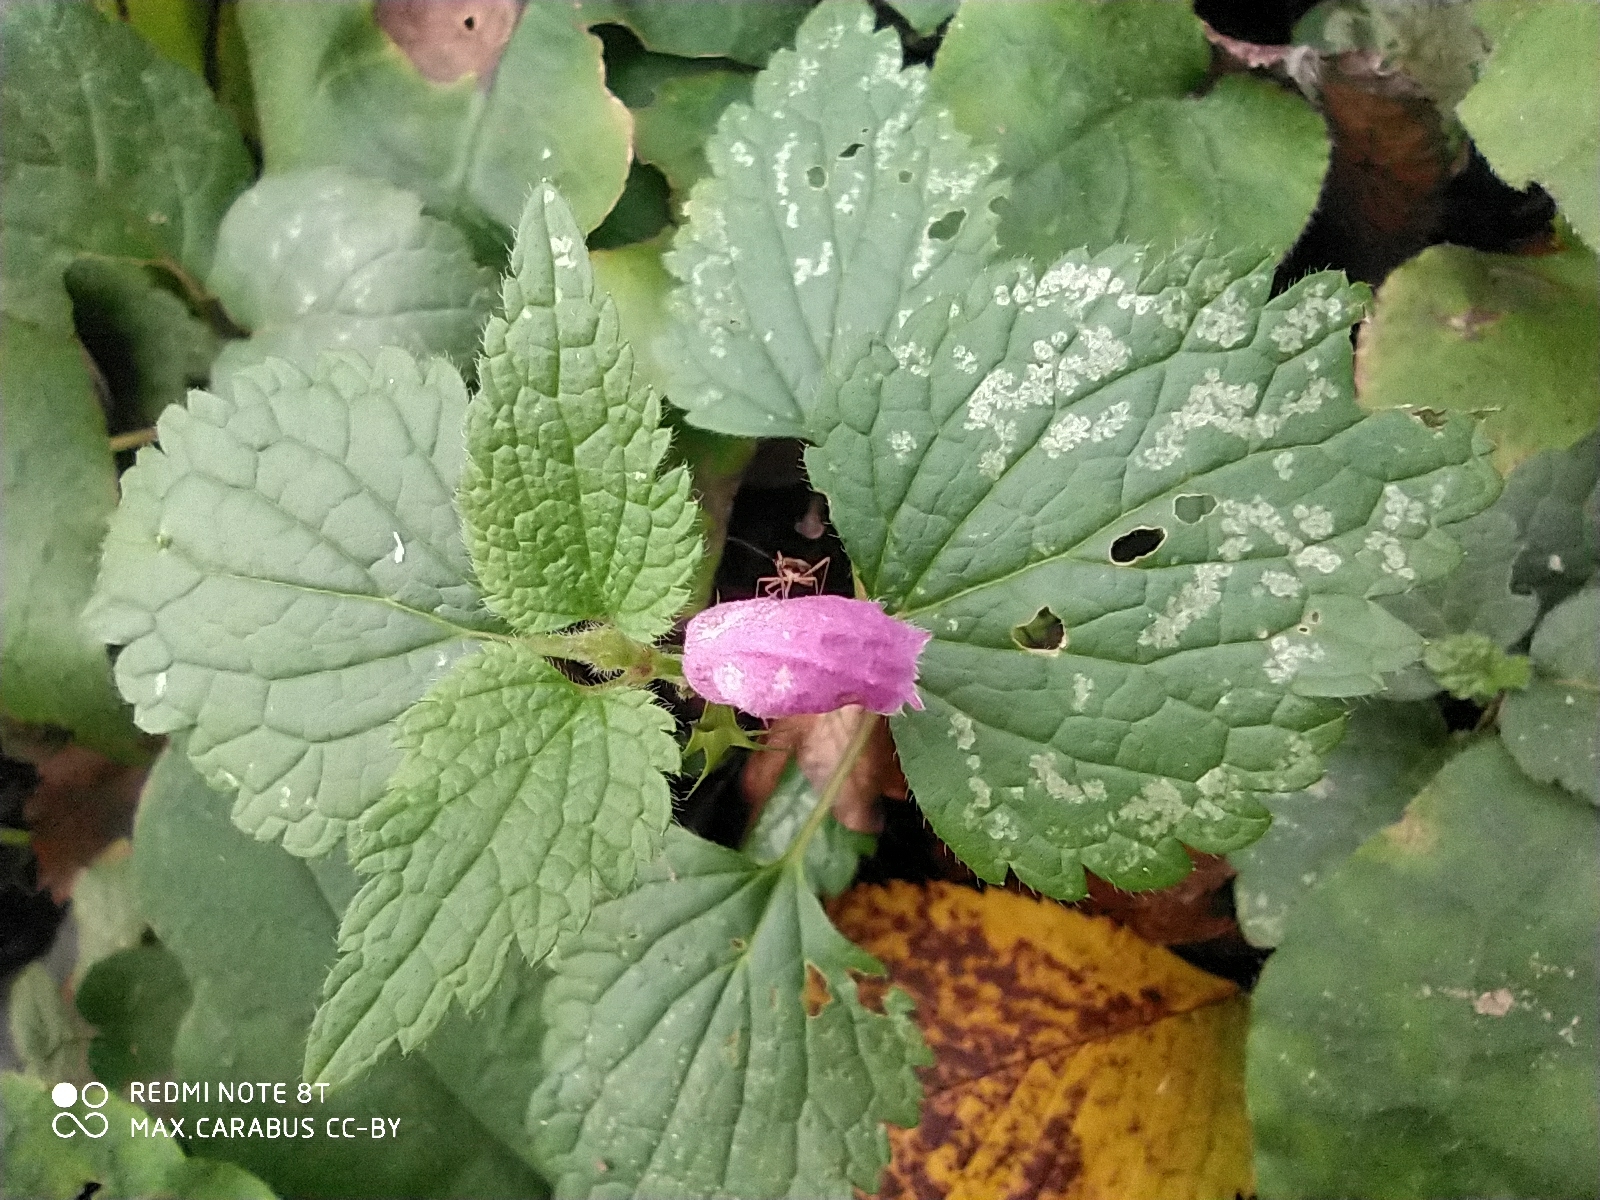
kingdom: Plantae
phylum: Tracheophyta
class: Magnoliopsida
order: Lamiales
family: Lamiaceae
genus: Lamium
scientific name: Lamium maculatum
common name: Spotted dead-nettle
